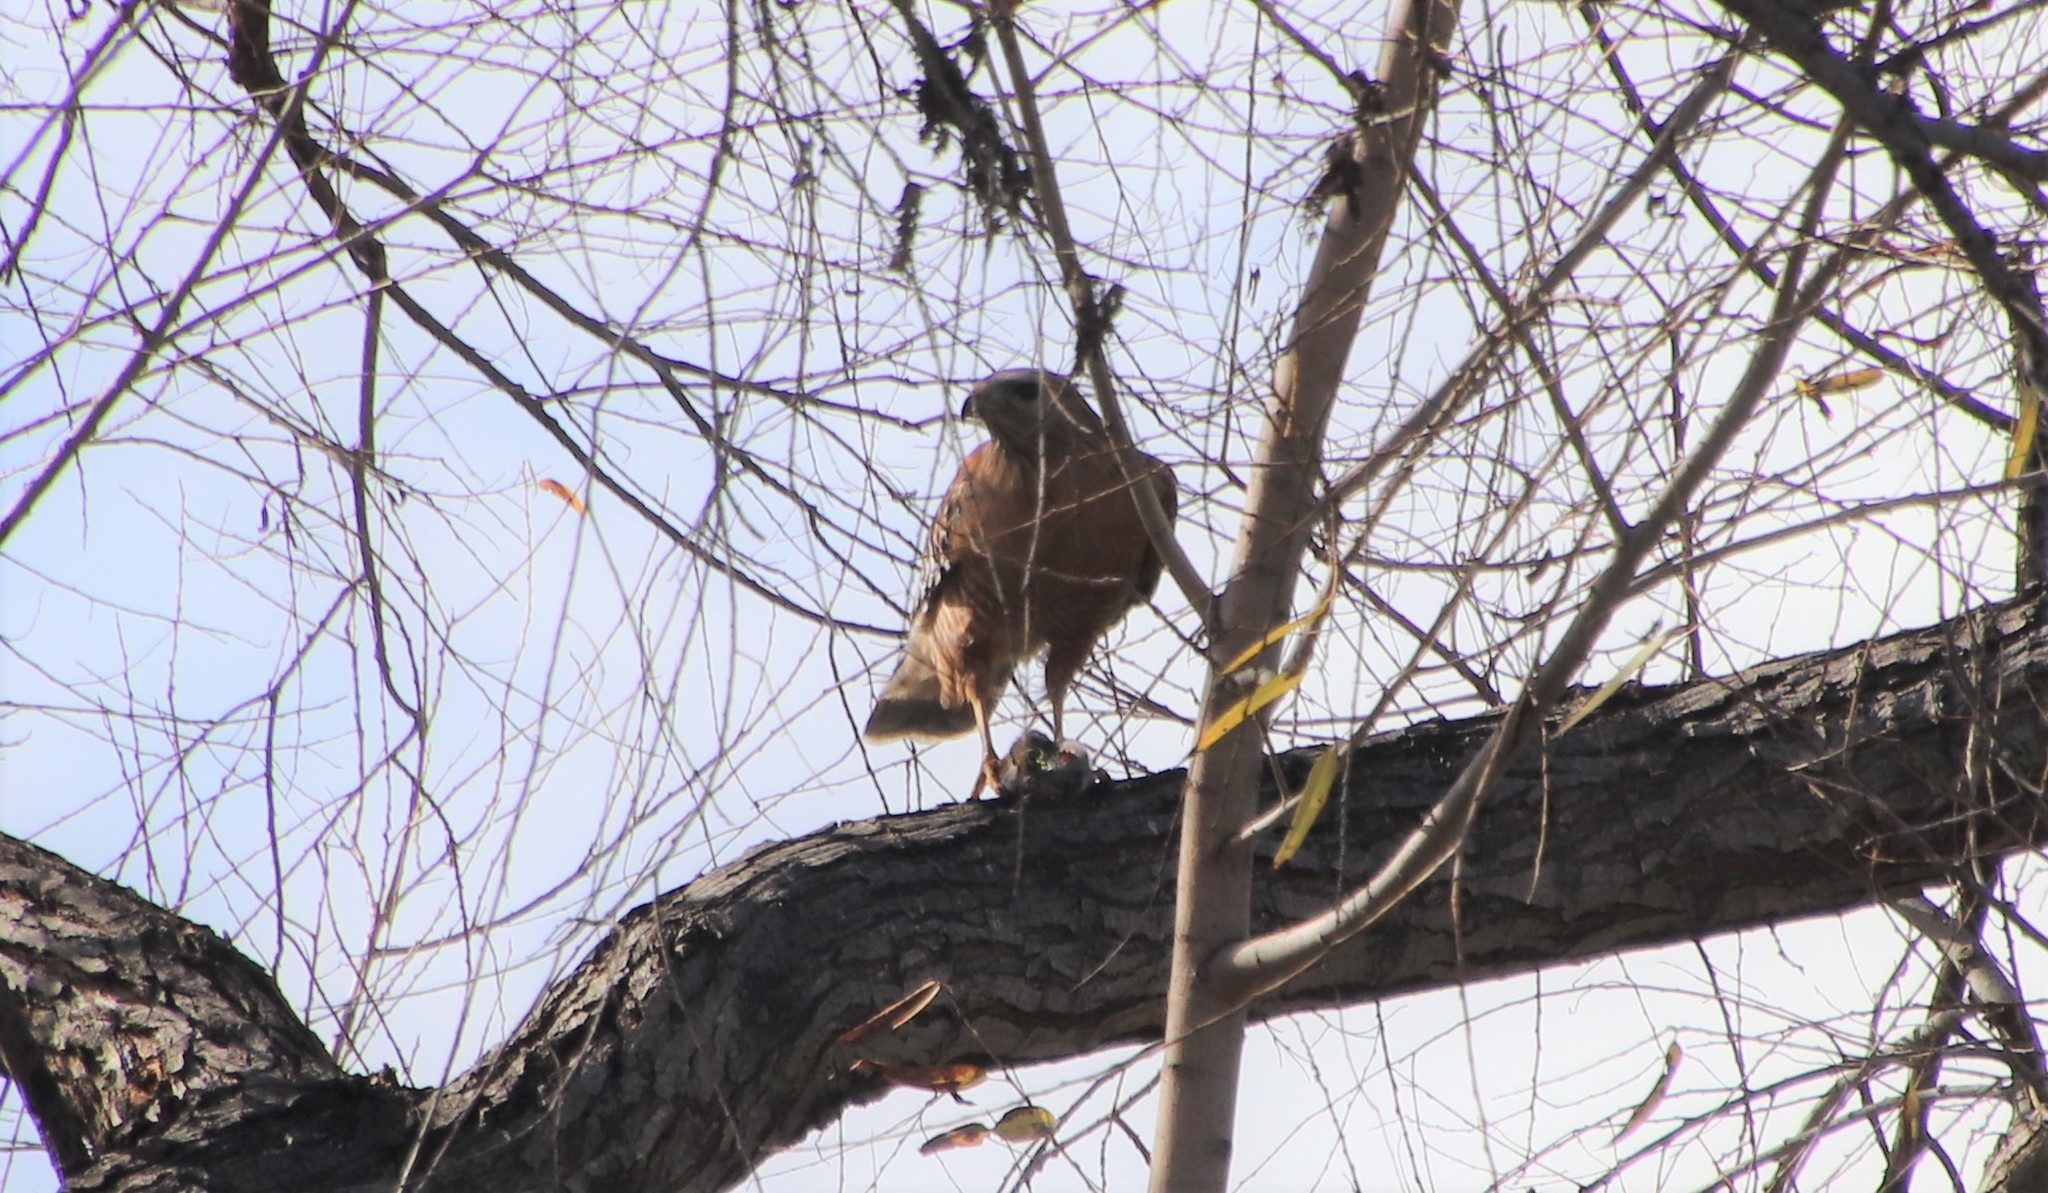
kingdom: Animalia
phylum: Chordata
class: Aves
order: Accipitriformes
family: Accipitridae
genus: Buteo
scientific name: Buteo lineatus
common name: Red-shouldered hawk
